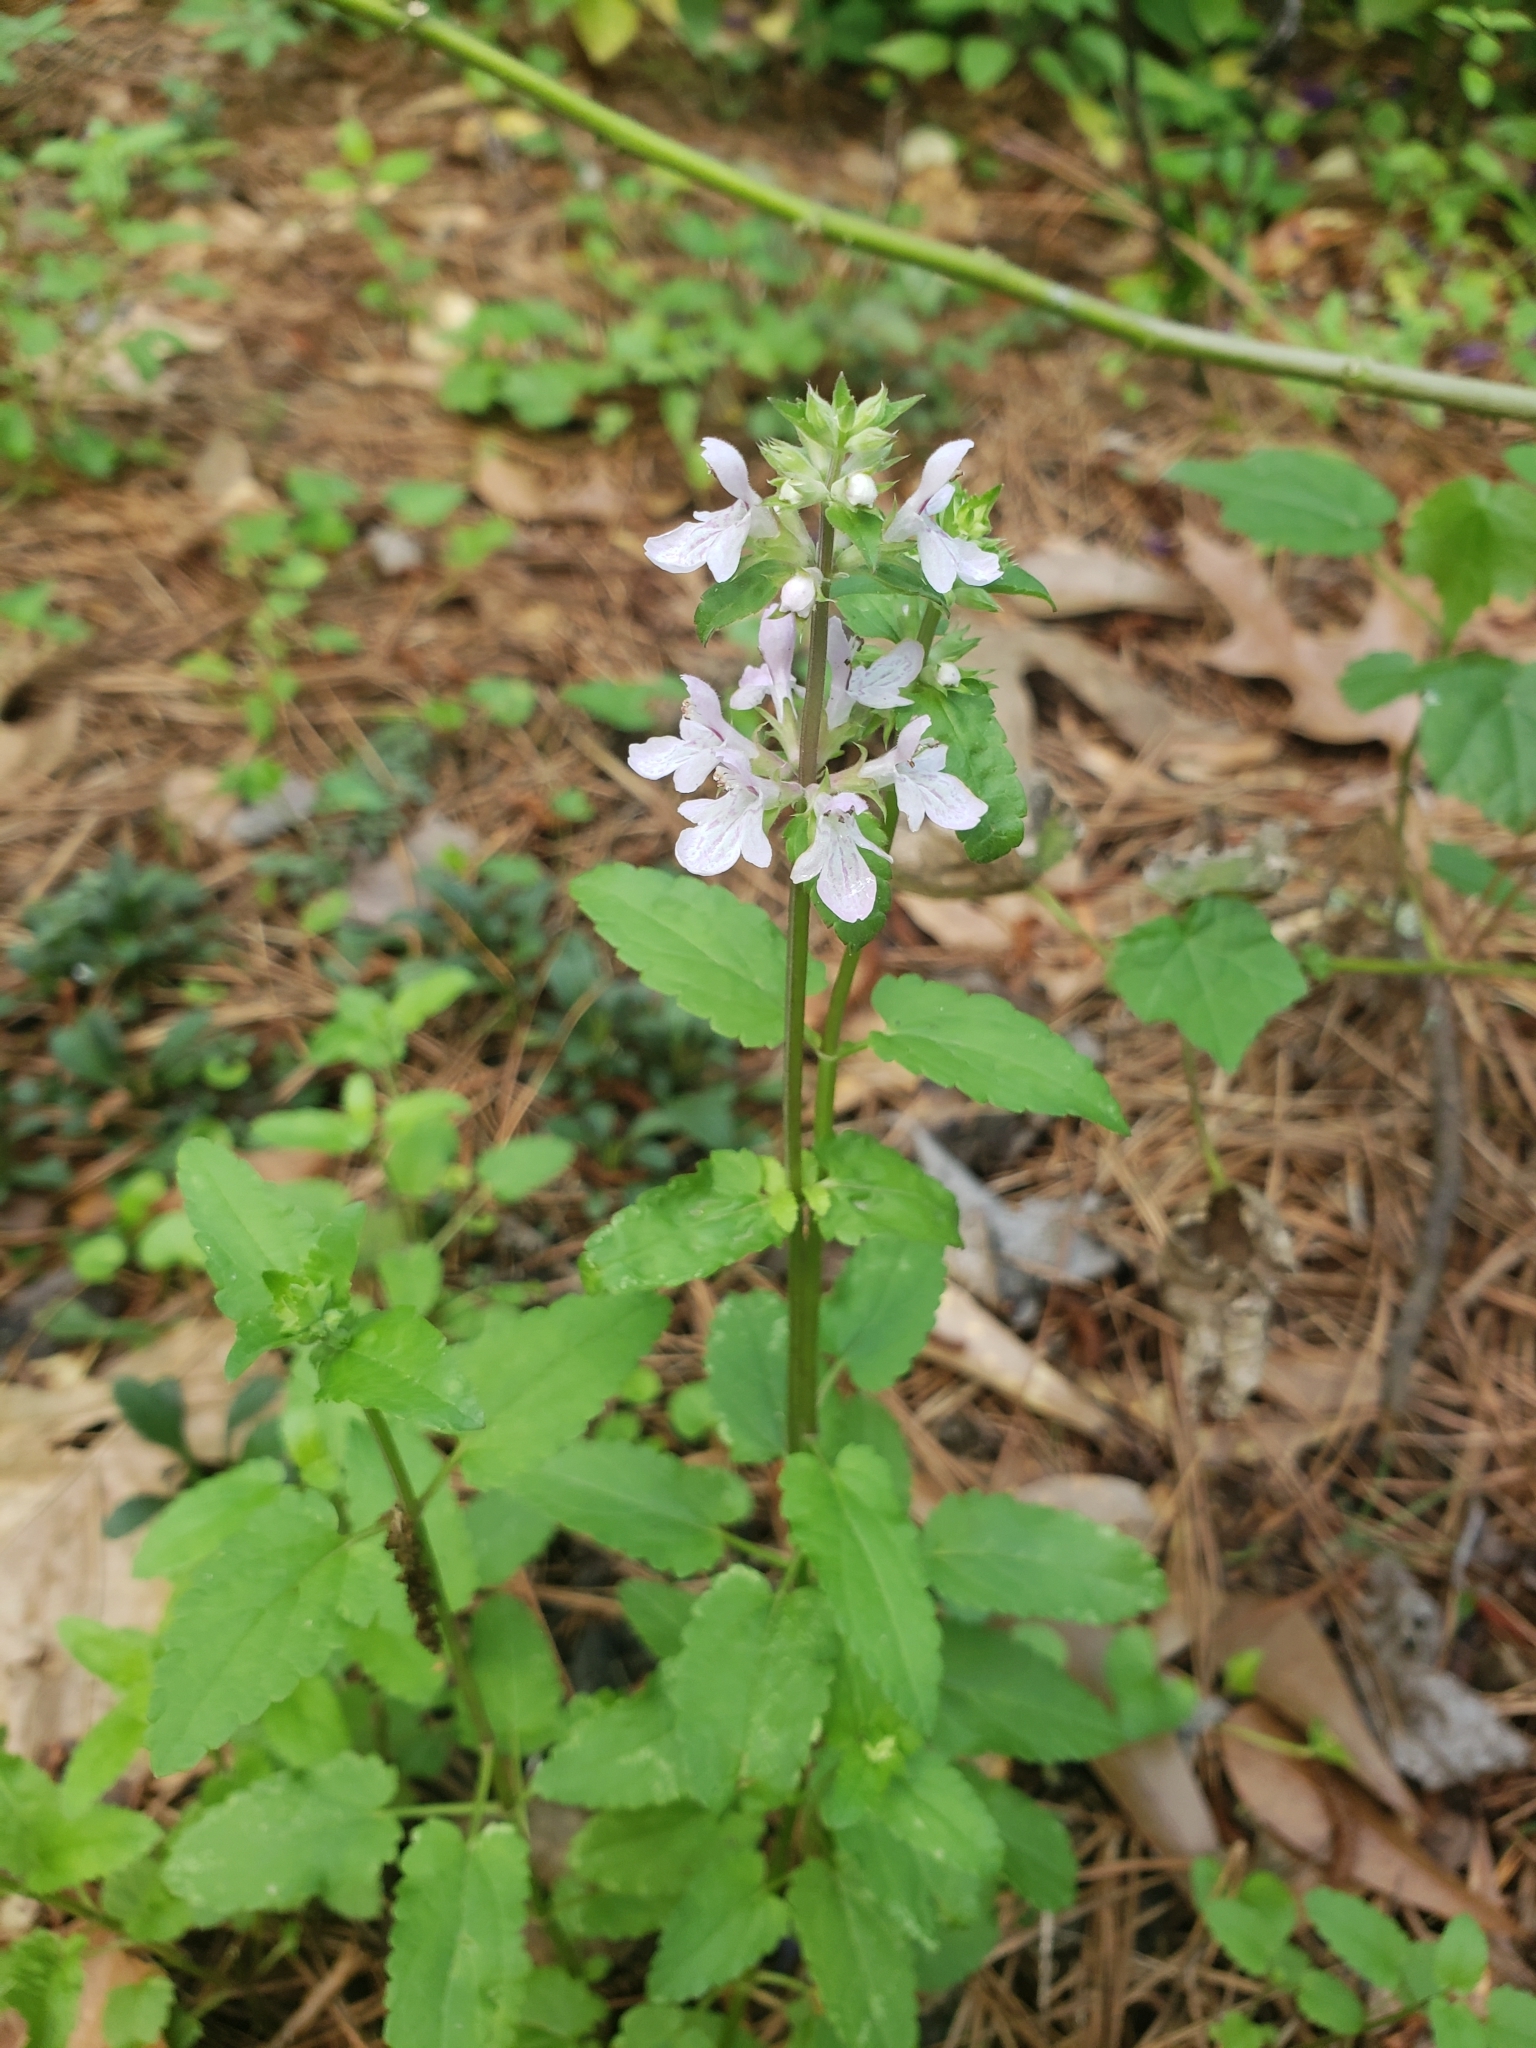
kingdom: Plantae
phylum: Tracheophyta
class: Magnoliopsida
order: Lamiales
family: Lamiaceae
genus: Stachys
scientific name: Stachys floridana
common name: Florida betony
